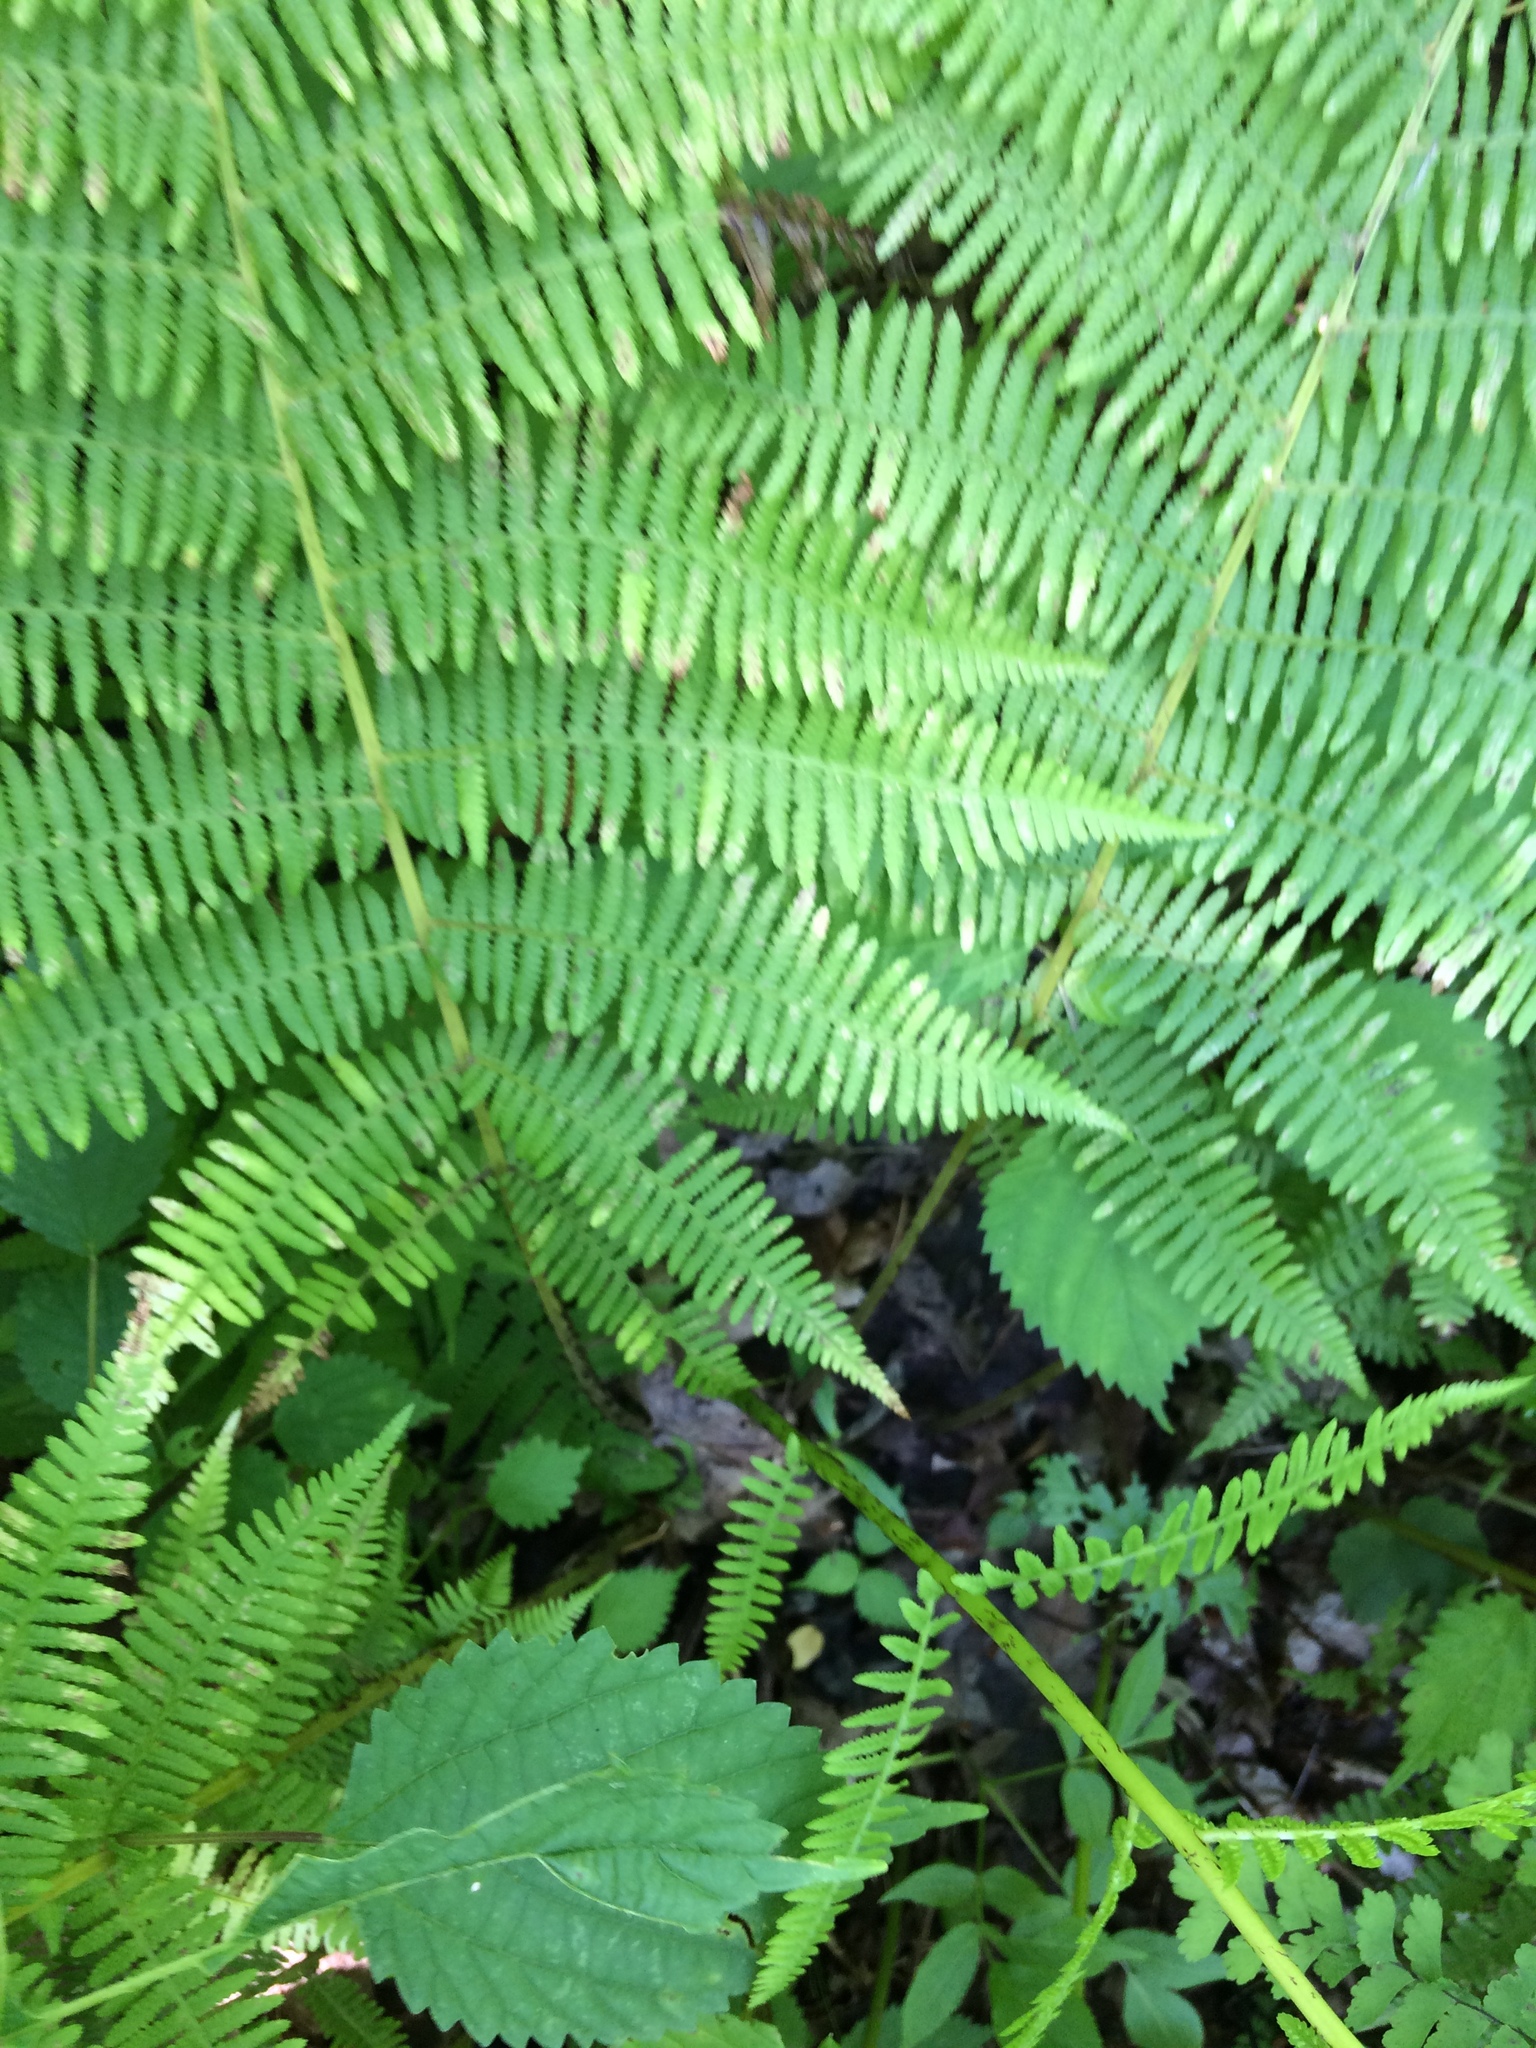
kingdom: Plantae
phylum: Tracheophyta
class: Polypodiopsida
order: Polypodiales
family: Athyriaceae
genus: Athyrium
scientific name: Athyrium angustum
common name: Northern lady fern
